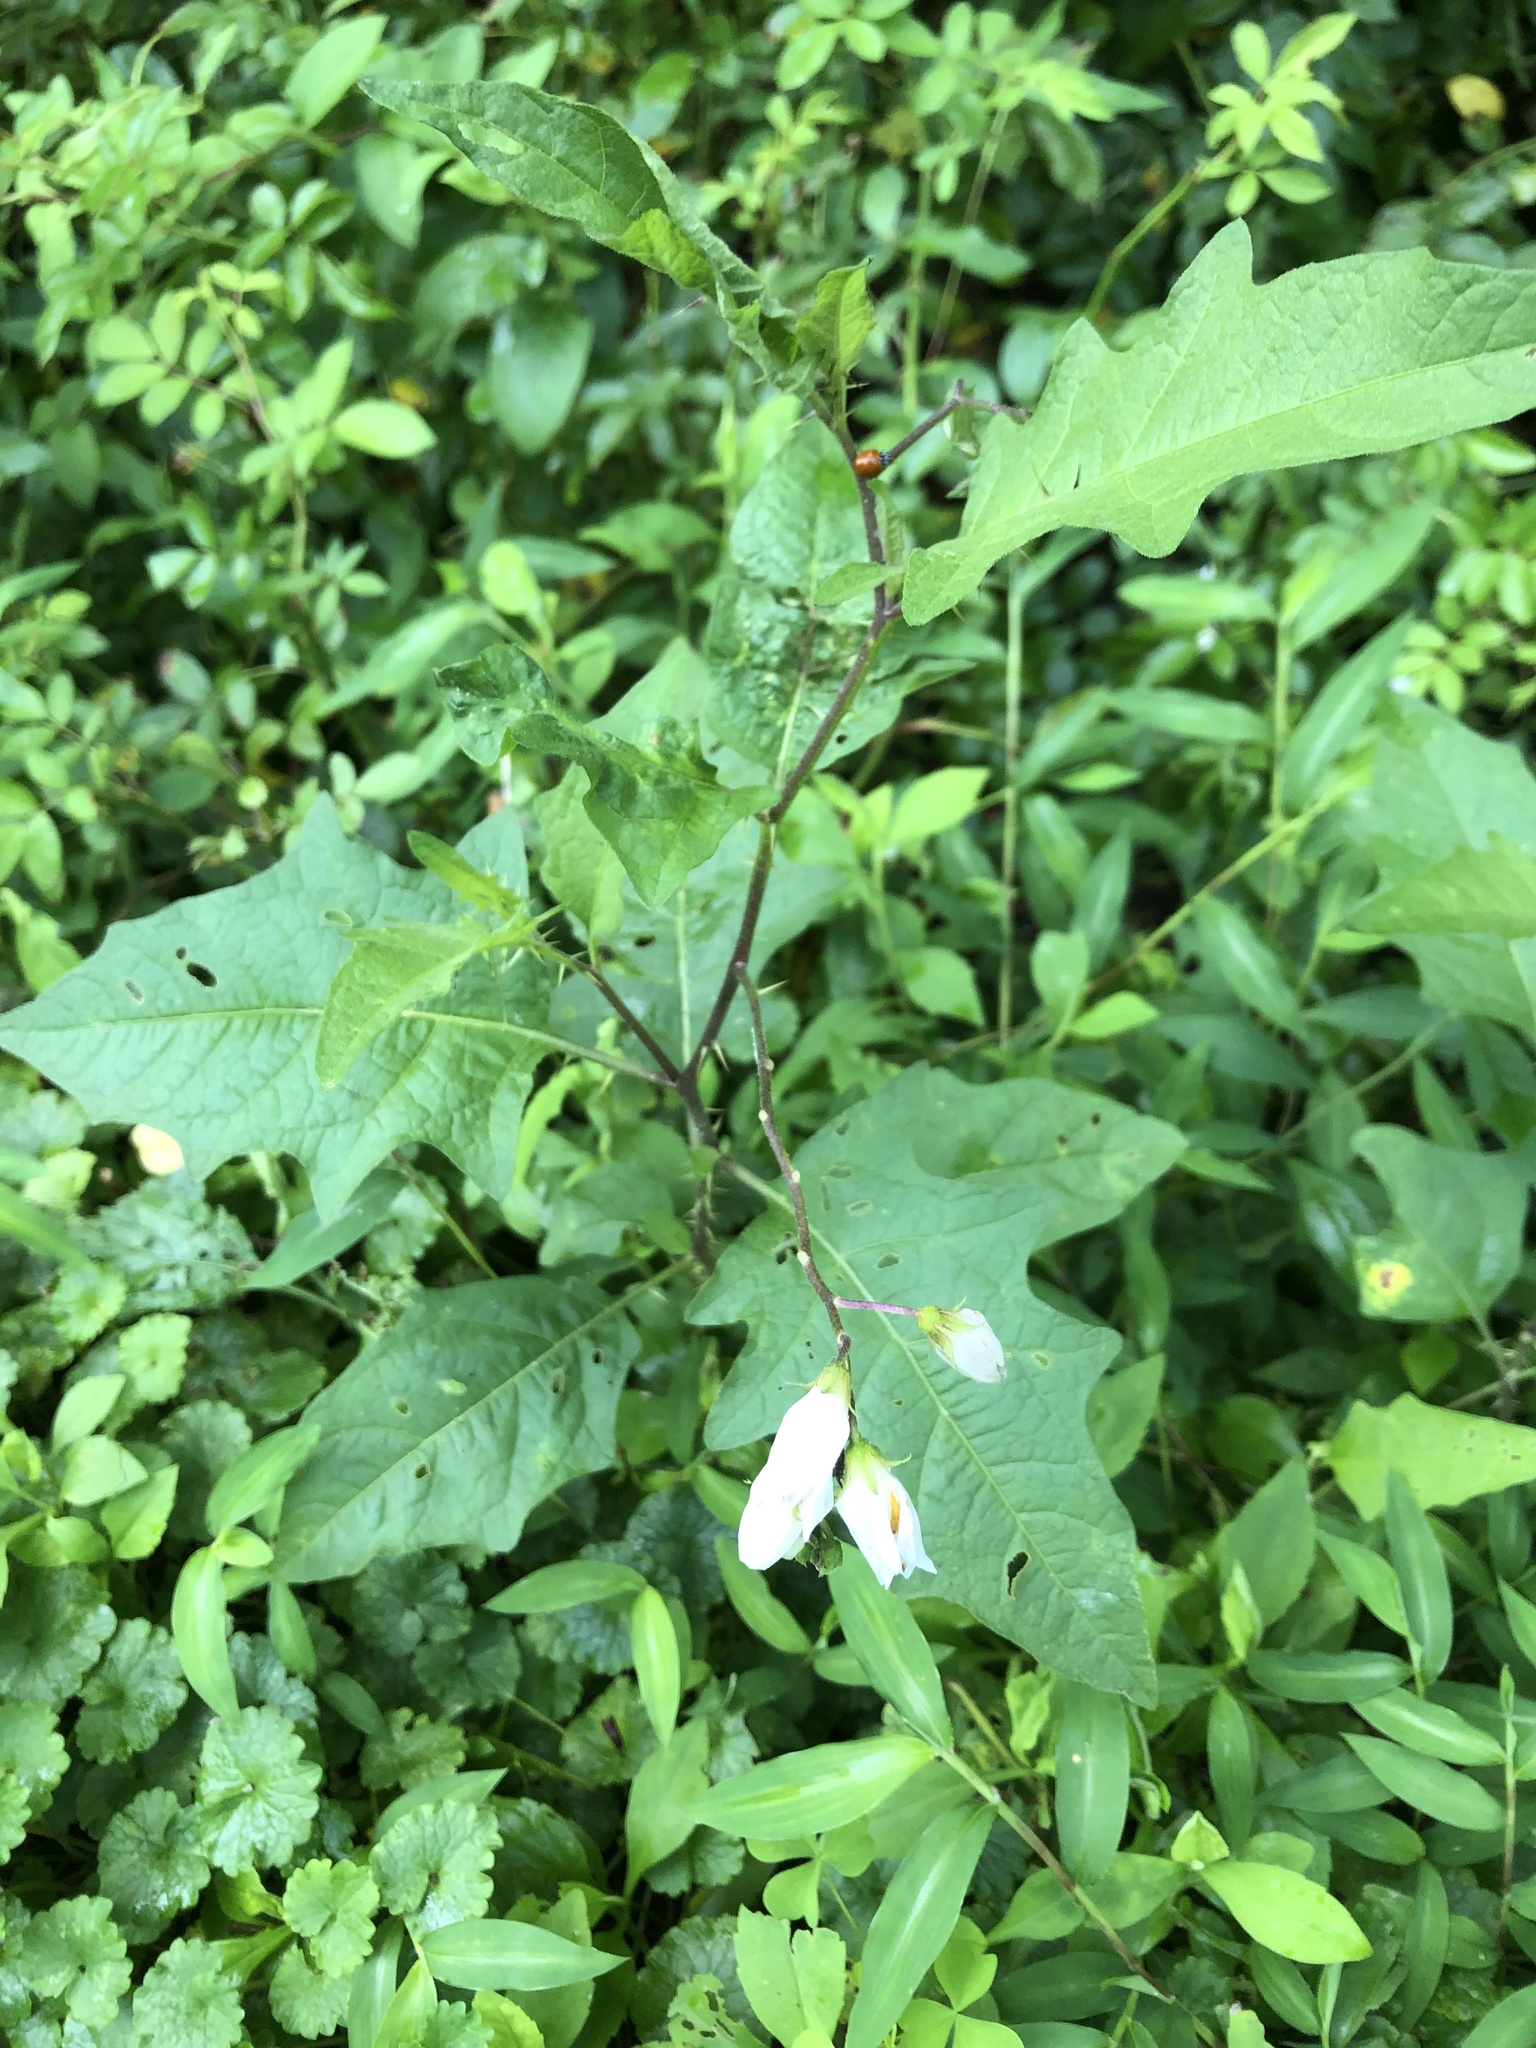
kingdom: Plantae
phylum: Tracheophyta
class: Magnoliopsida
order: Solanales
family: Solanaceae
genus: Solanum
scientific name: Solanum carolinense
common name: Horse-nettle
